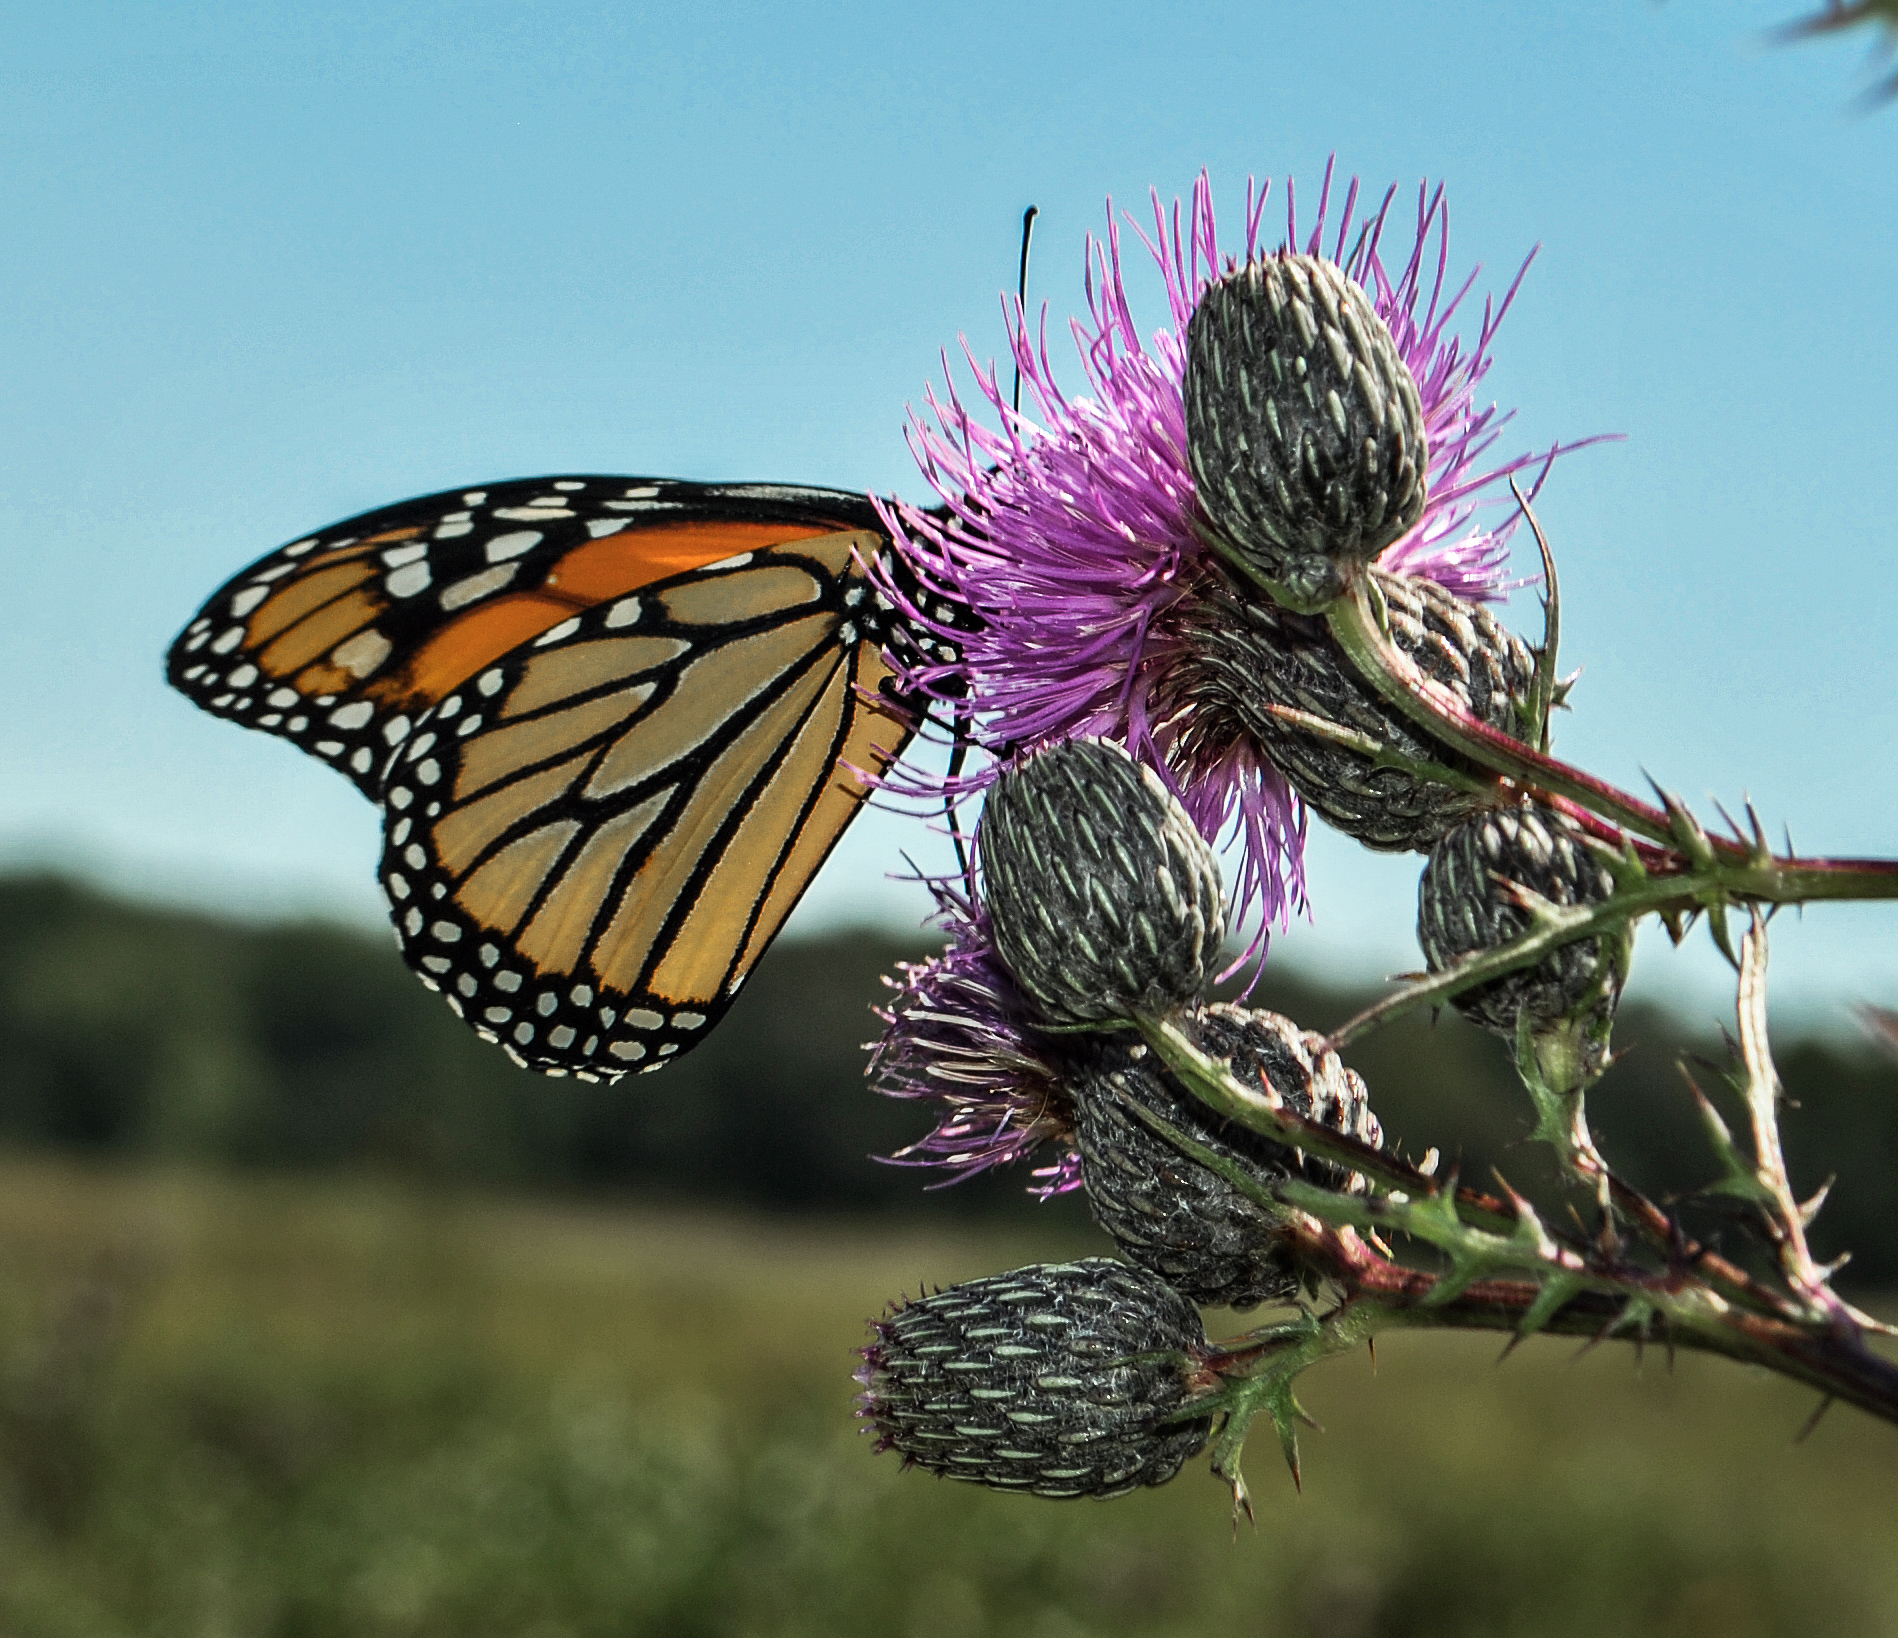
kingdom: Animalia
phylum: Arthropoda
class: Insecta
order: Lepidoptera
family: Nymphalidae
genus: Danaus
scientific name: Danaus plexippus
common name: Monarch
